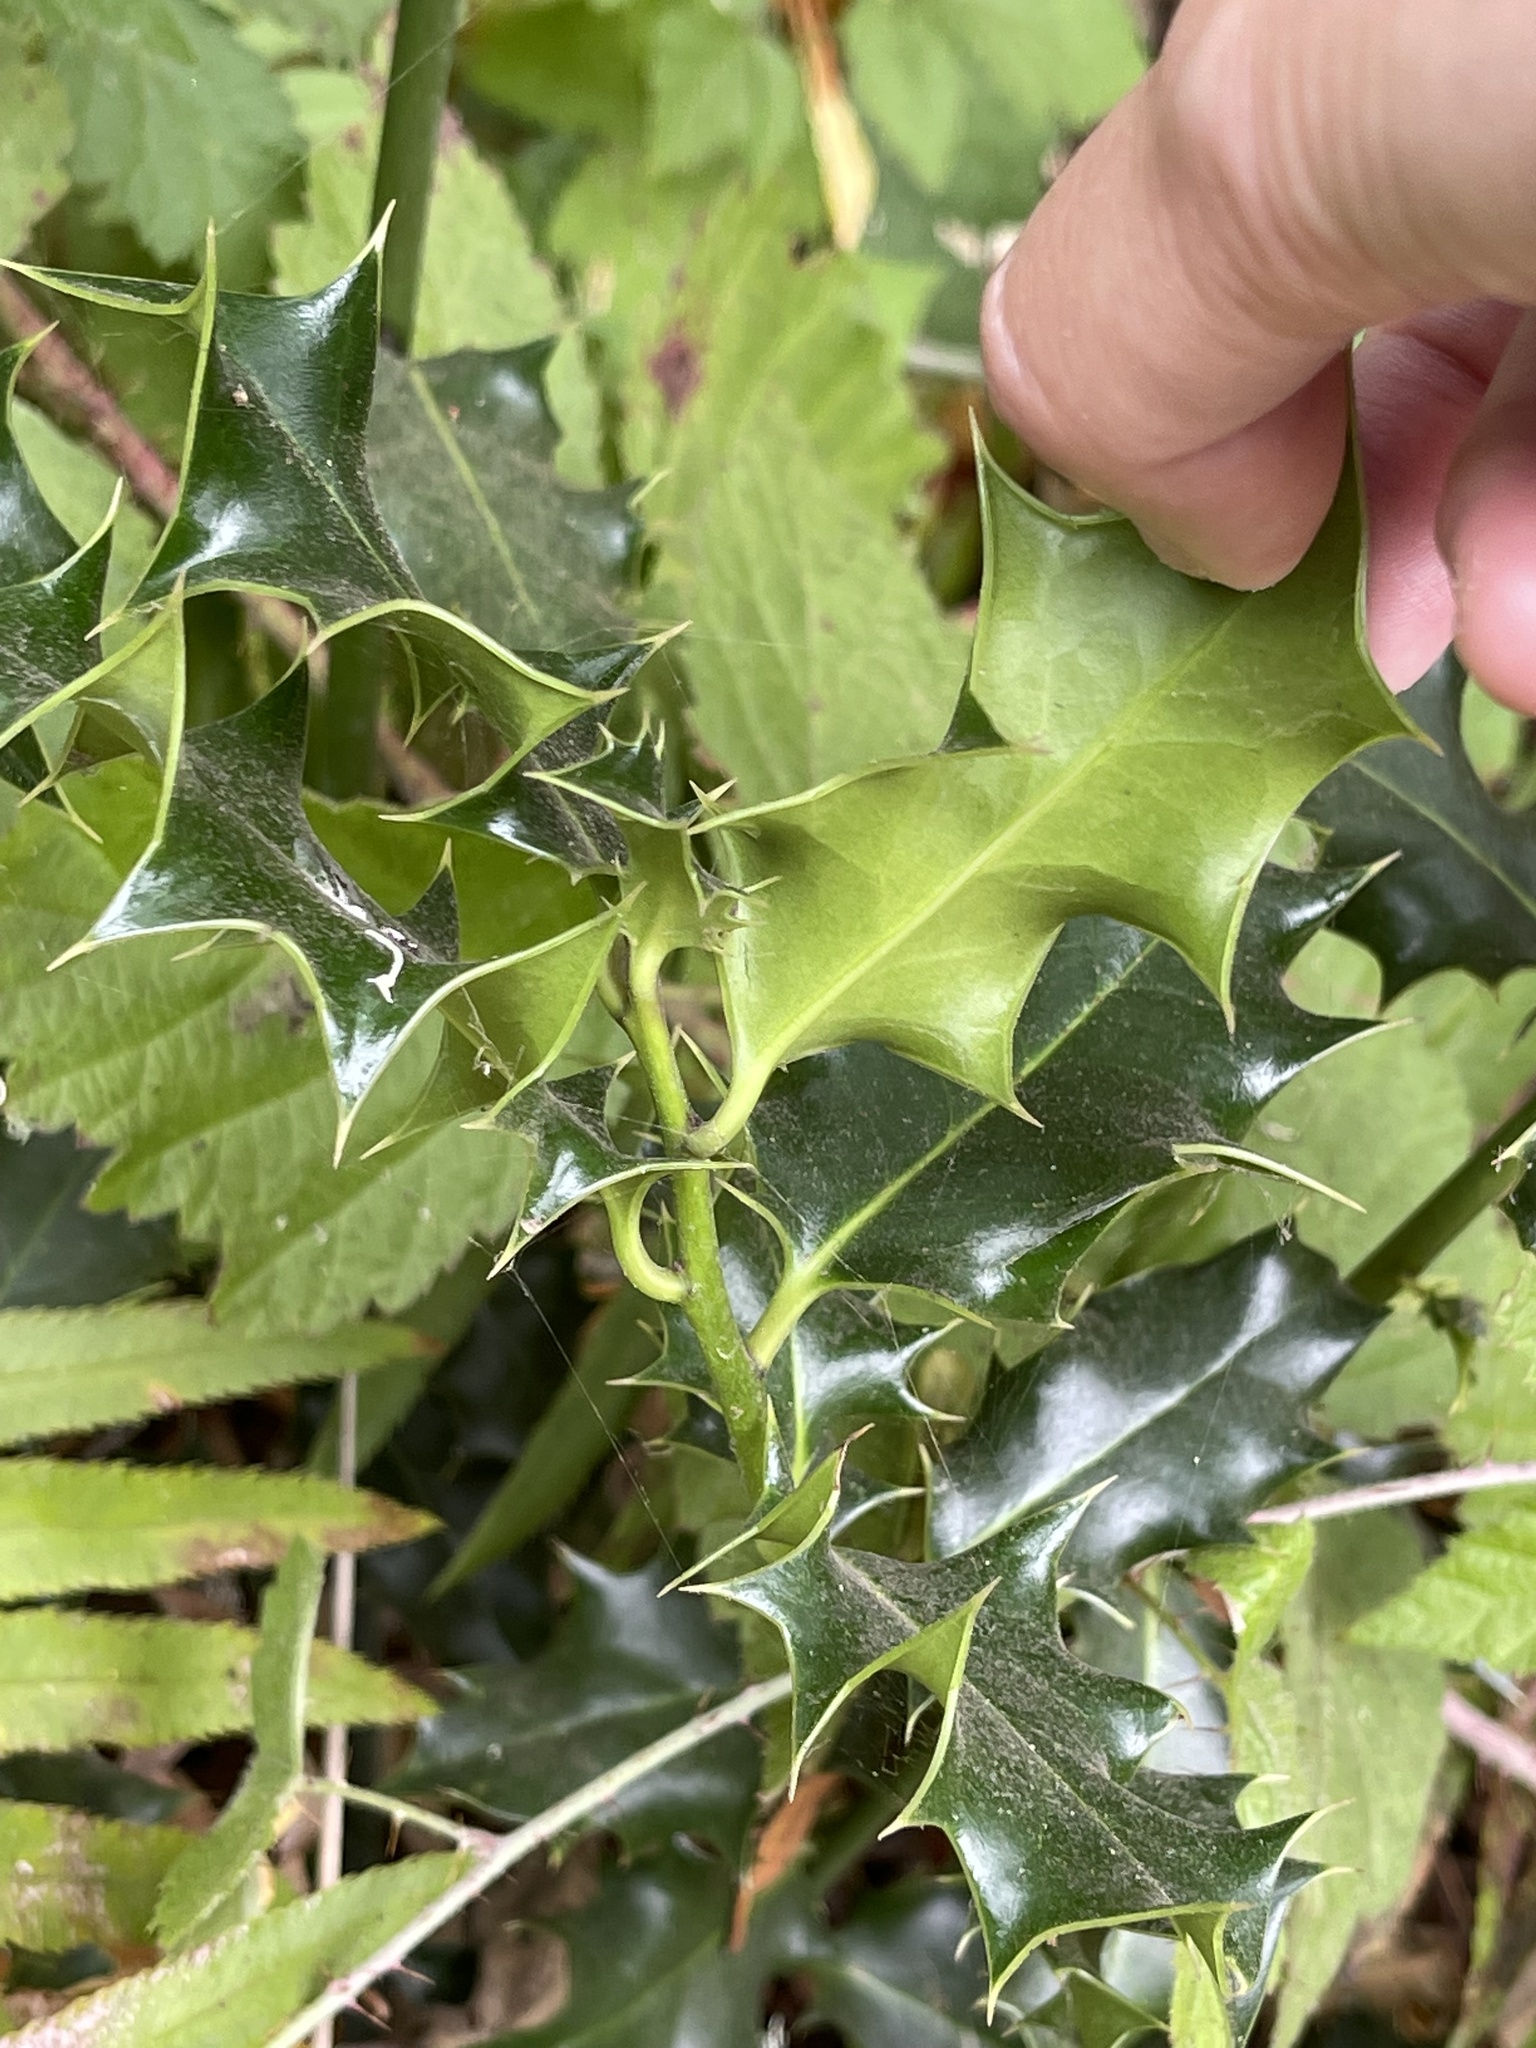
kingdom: Plantae
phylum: Tracheophyta
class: Magnoliopsida
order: Aquifoliales
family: Aquifoliaceae
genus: Ilex
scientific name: Ilex aquifolium
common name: English holly
